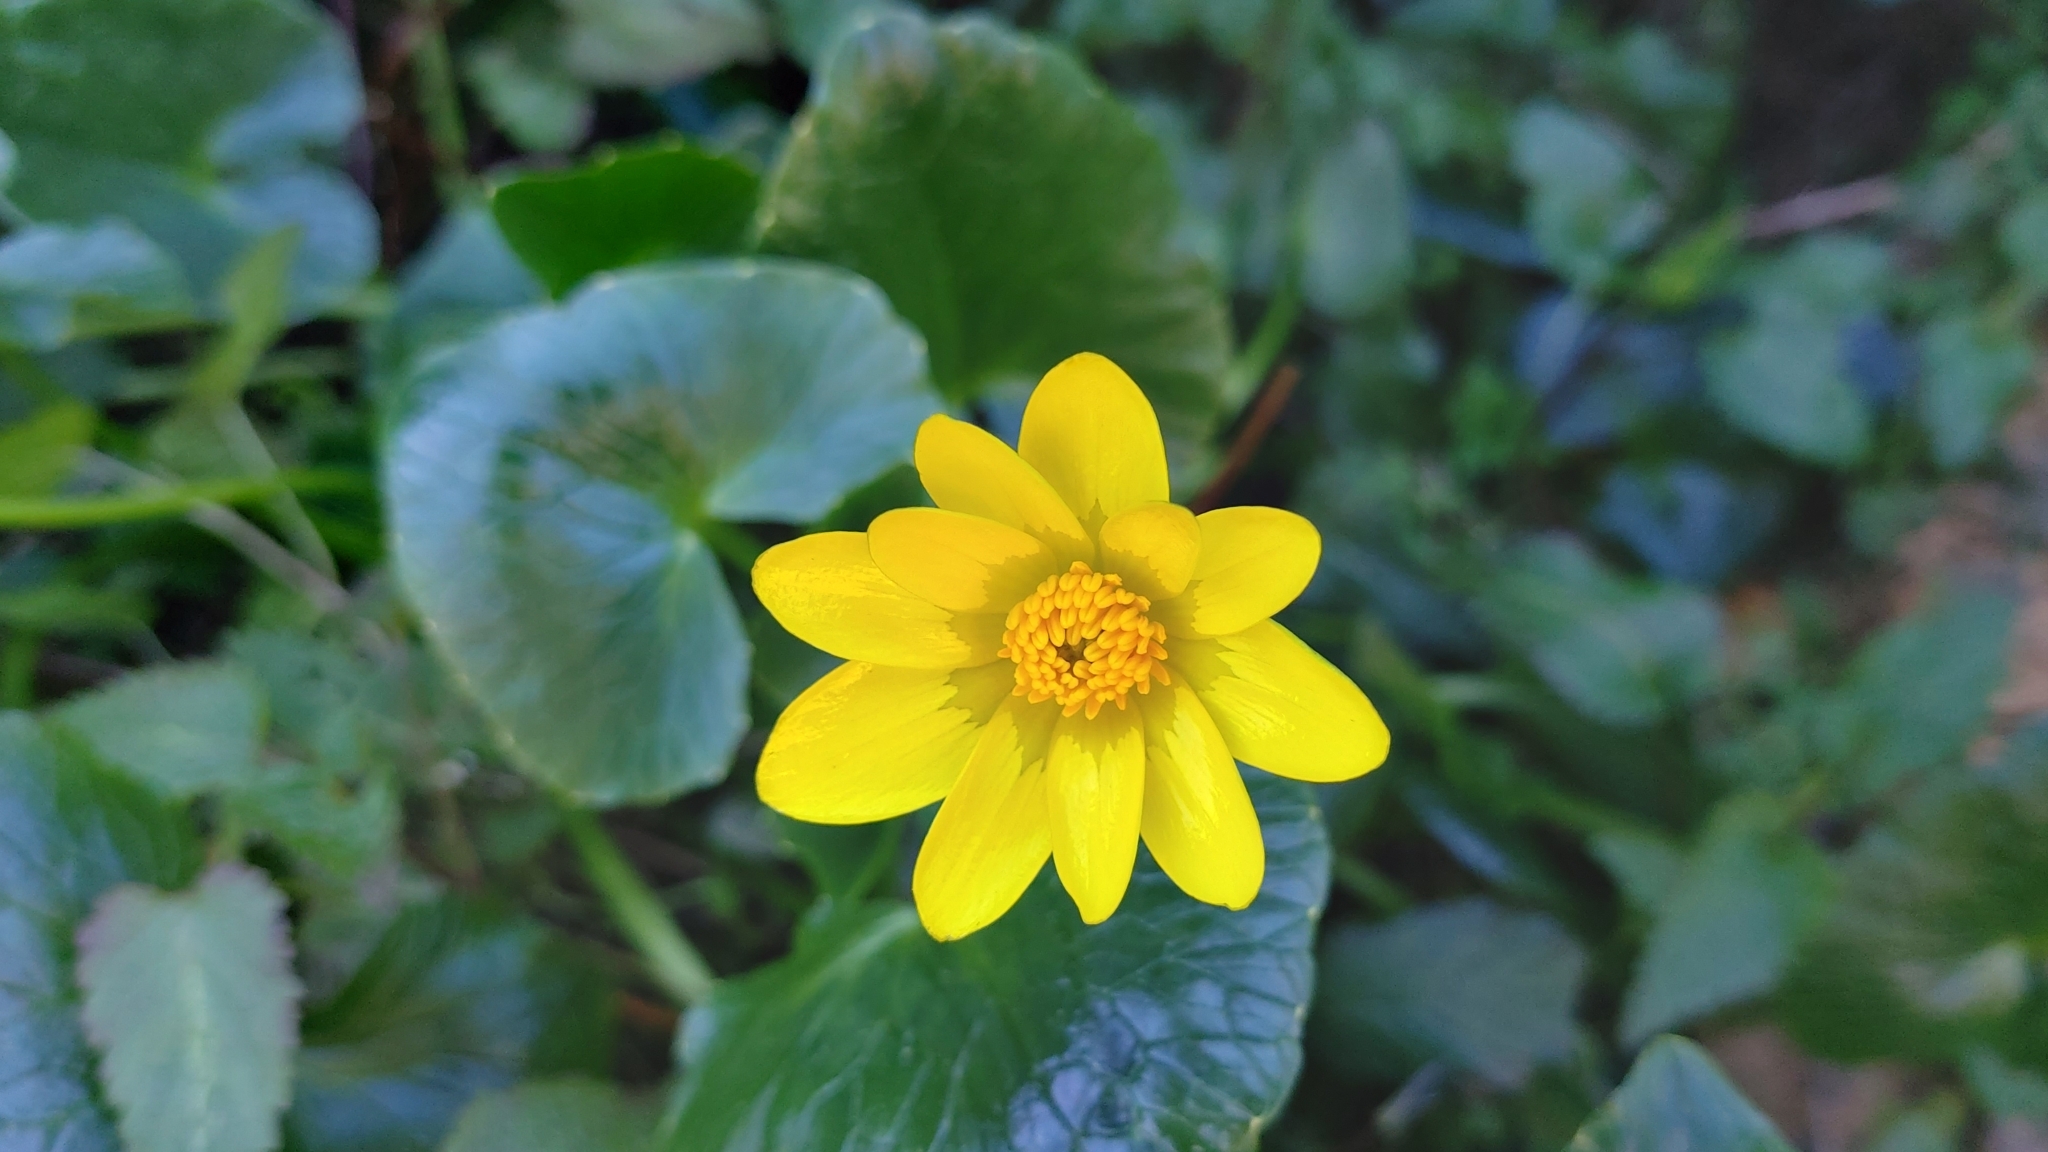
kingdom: Plantae
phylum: Tracheophyta
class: Magnoliopsida
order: Ranunculales
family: Ranunculaceae
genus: Ficaria
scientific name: Ficaria verna
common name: Lesser celandine
